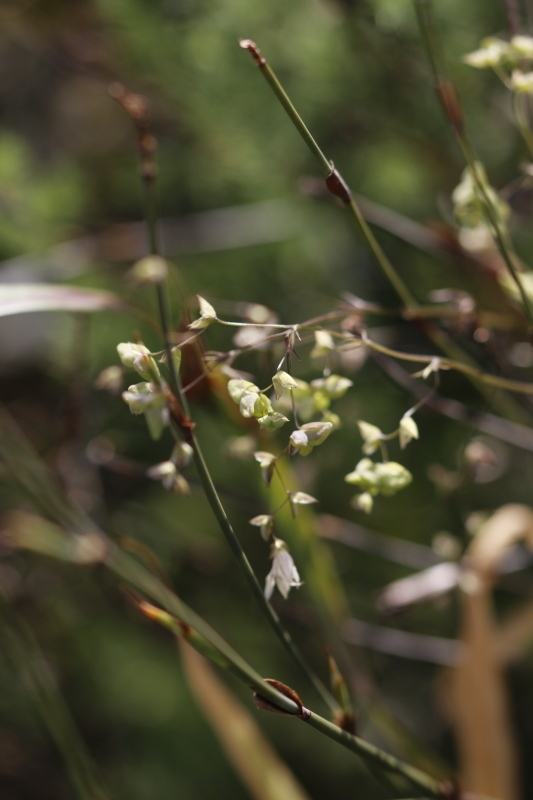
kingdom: Plantae
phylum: Tracheophyta
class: Liliopsida
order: Asparagales
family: Iridaceae
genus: Melasphaerula
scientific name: Melasphaerula graminea
